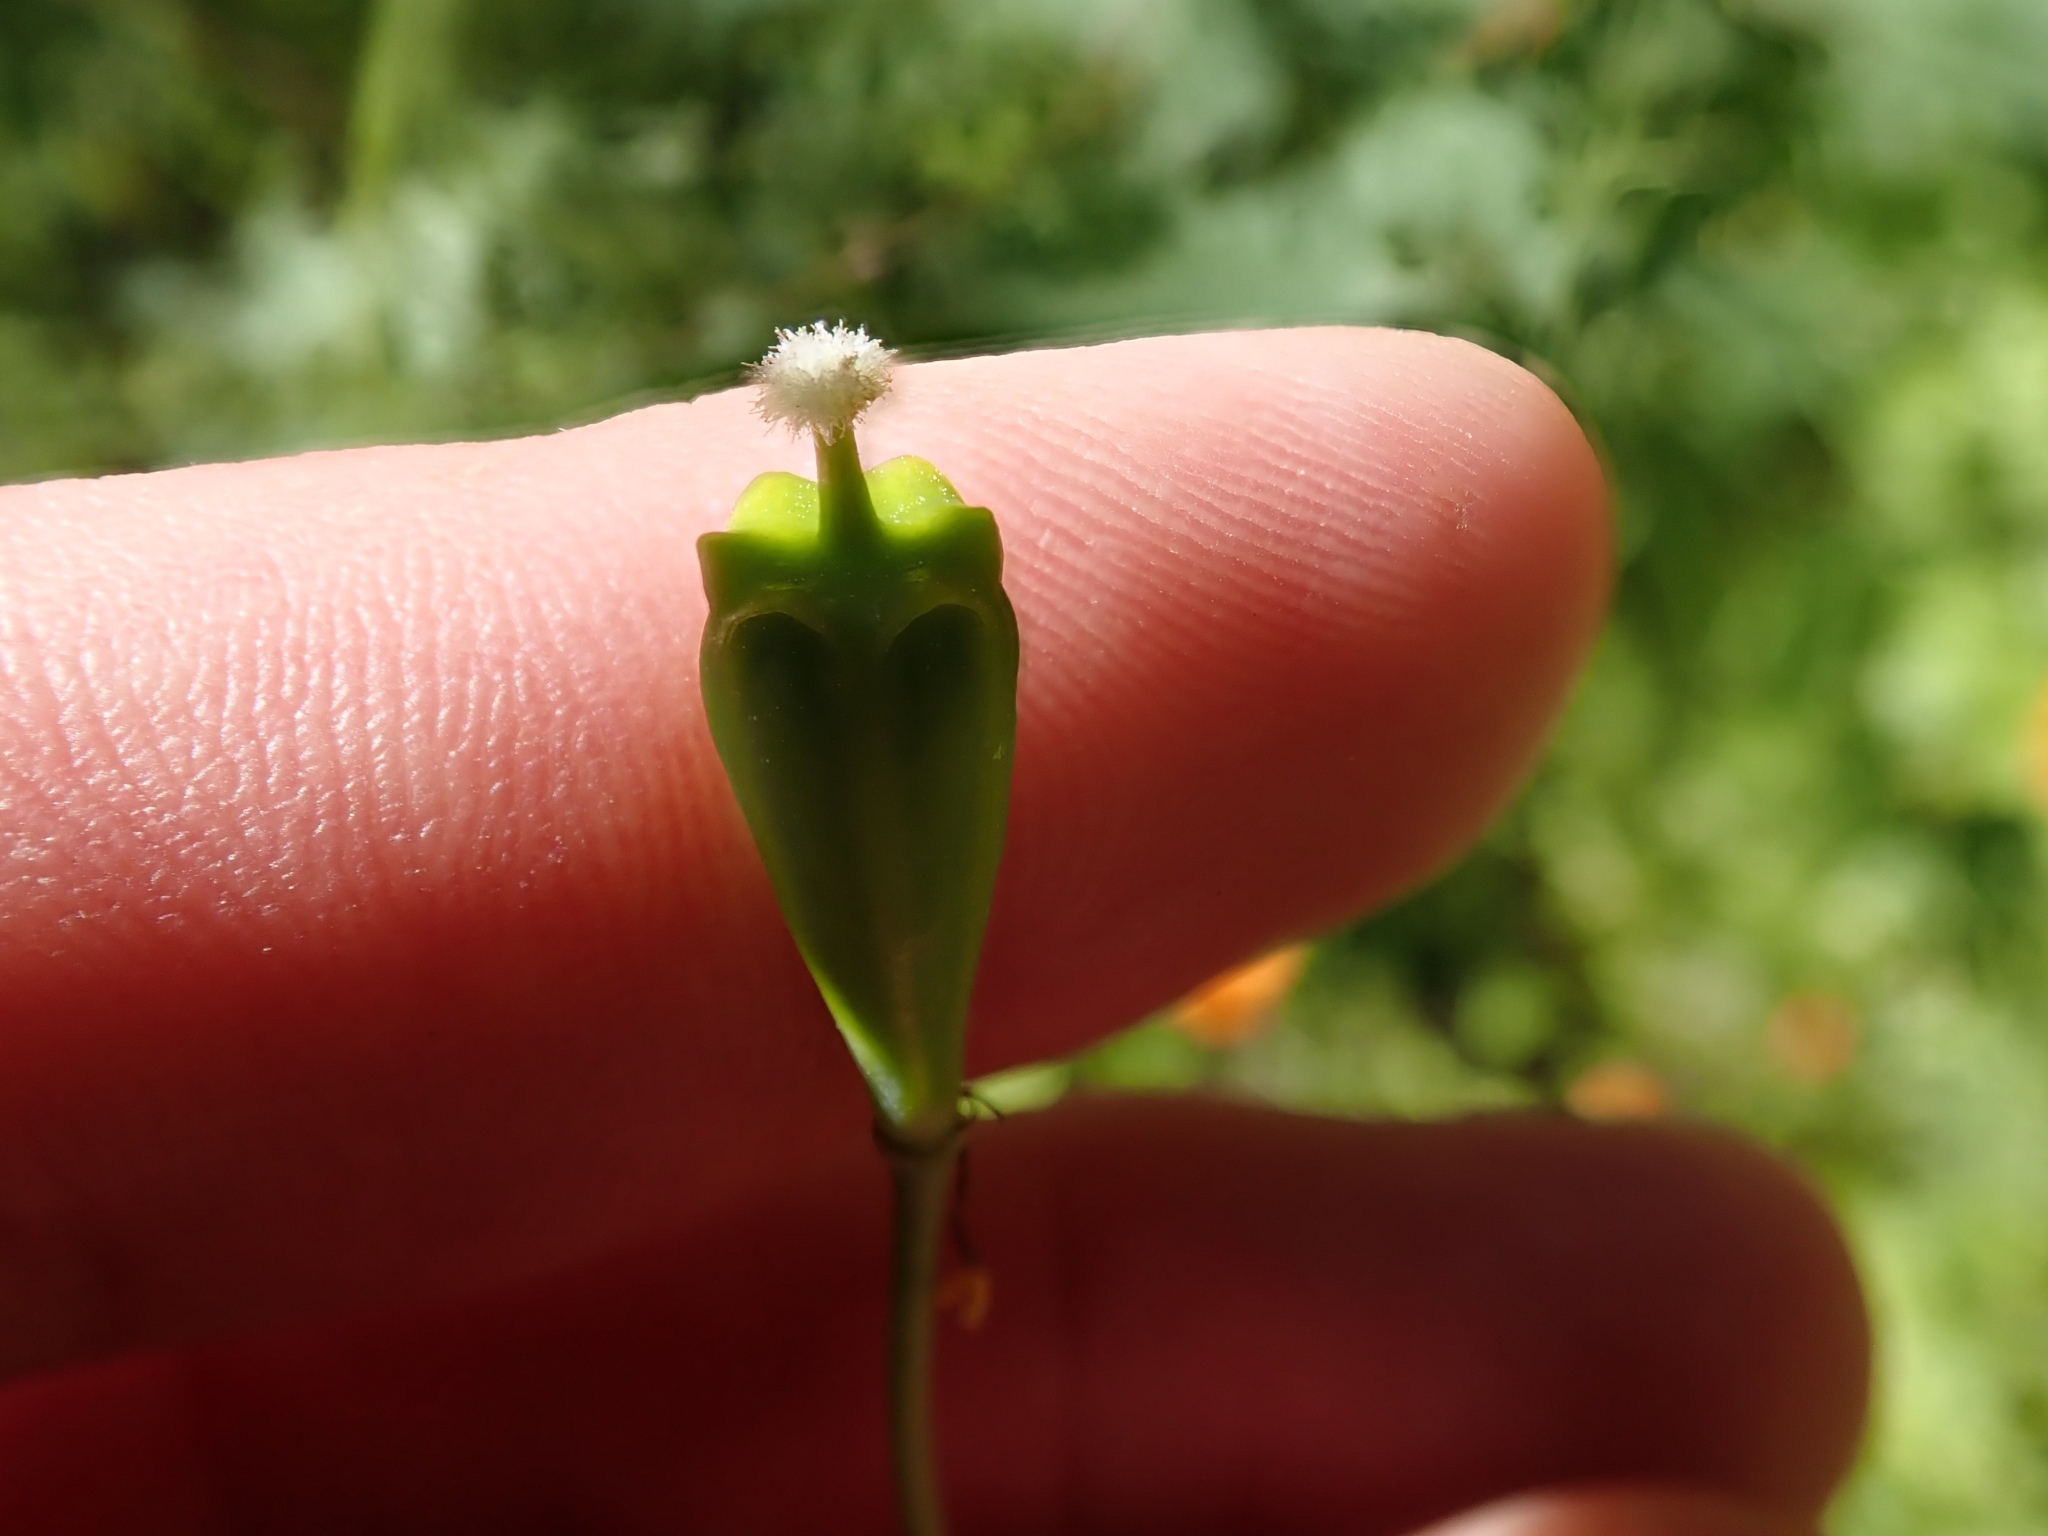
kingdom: Plantae
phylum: Tracheophyta
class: Magnoliopsida
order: Ranunculales
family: Papaveraceae
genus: Stylomecon
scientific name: Stylomecon heterophylla
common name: Flaming-poppy
